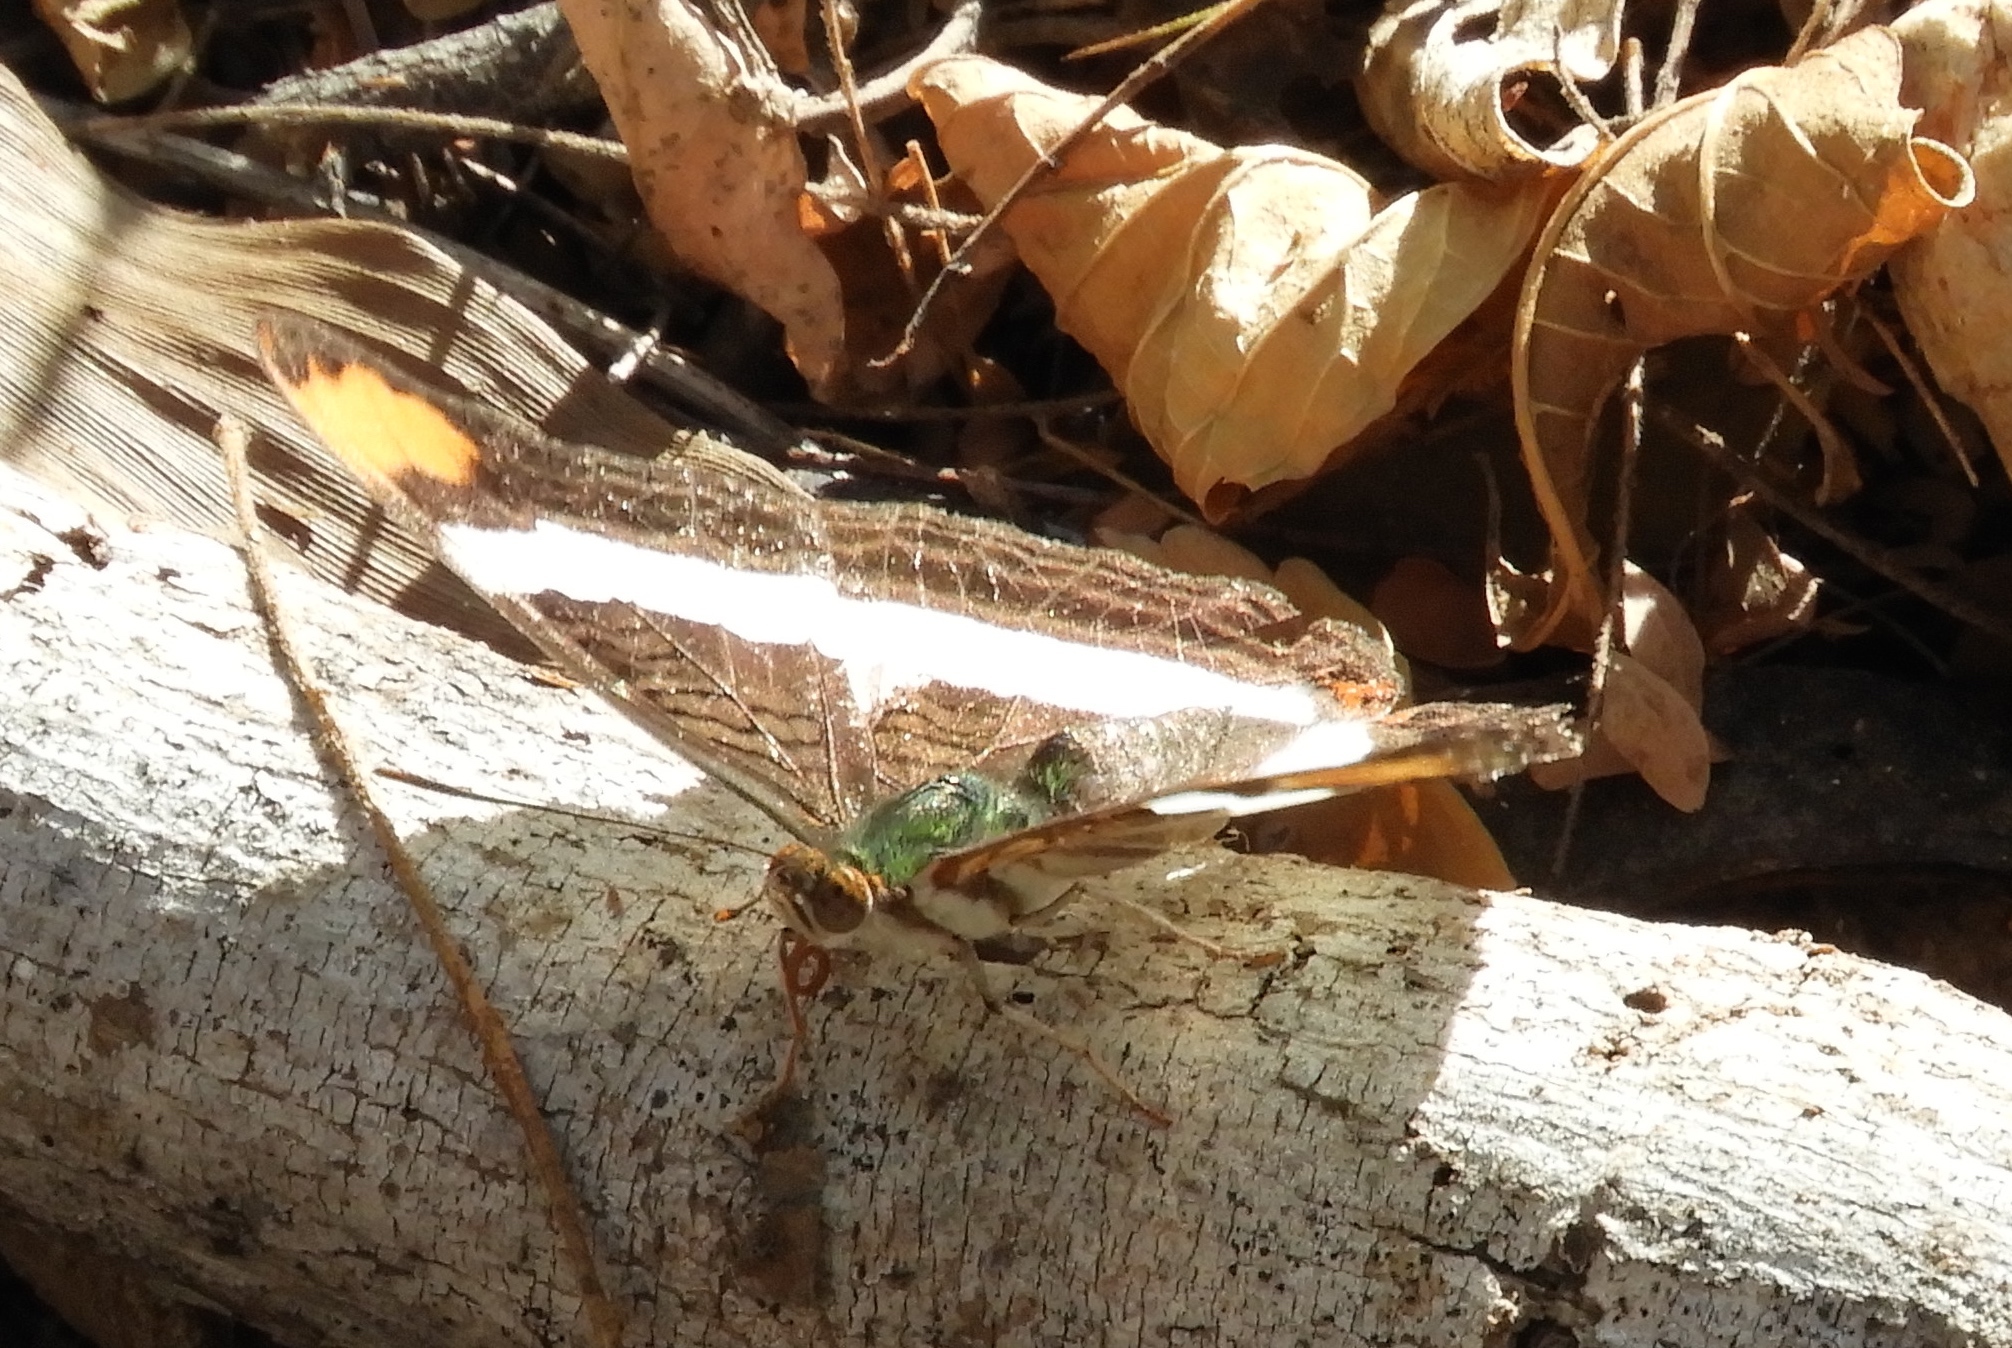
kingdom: Animalia
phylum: Arthropoda
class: Insecta
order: Lepidoptera
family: Nymphalidae
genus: Limenitis
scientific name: Limenitis fessonia
